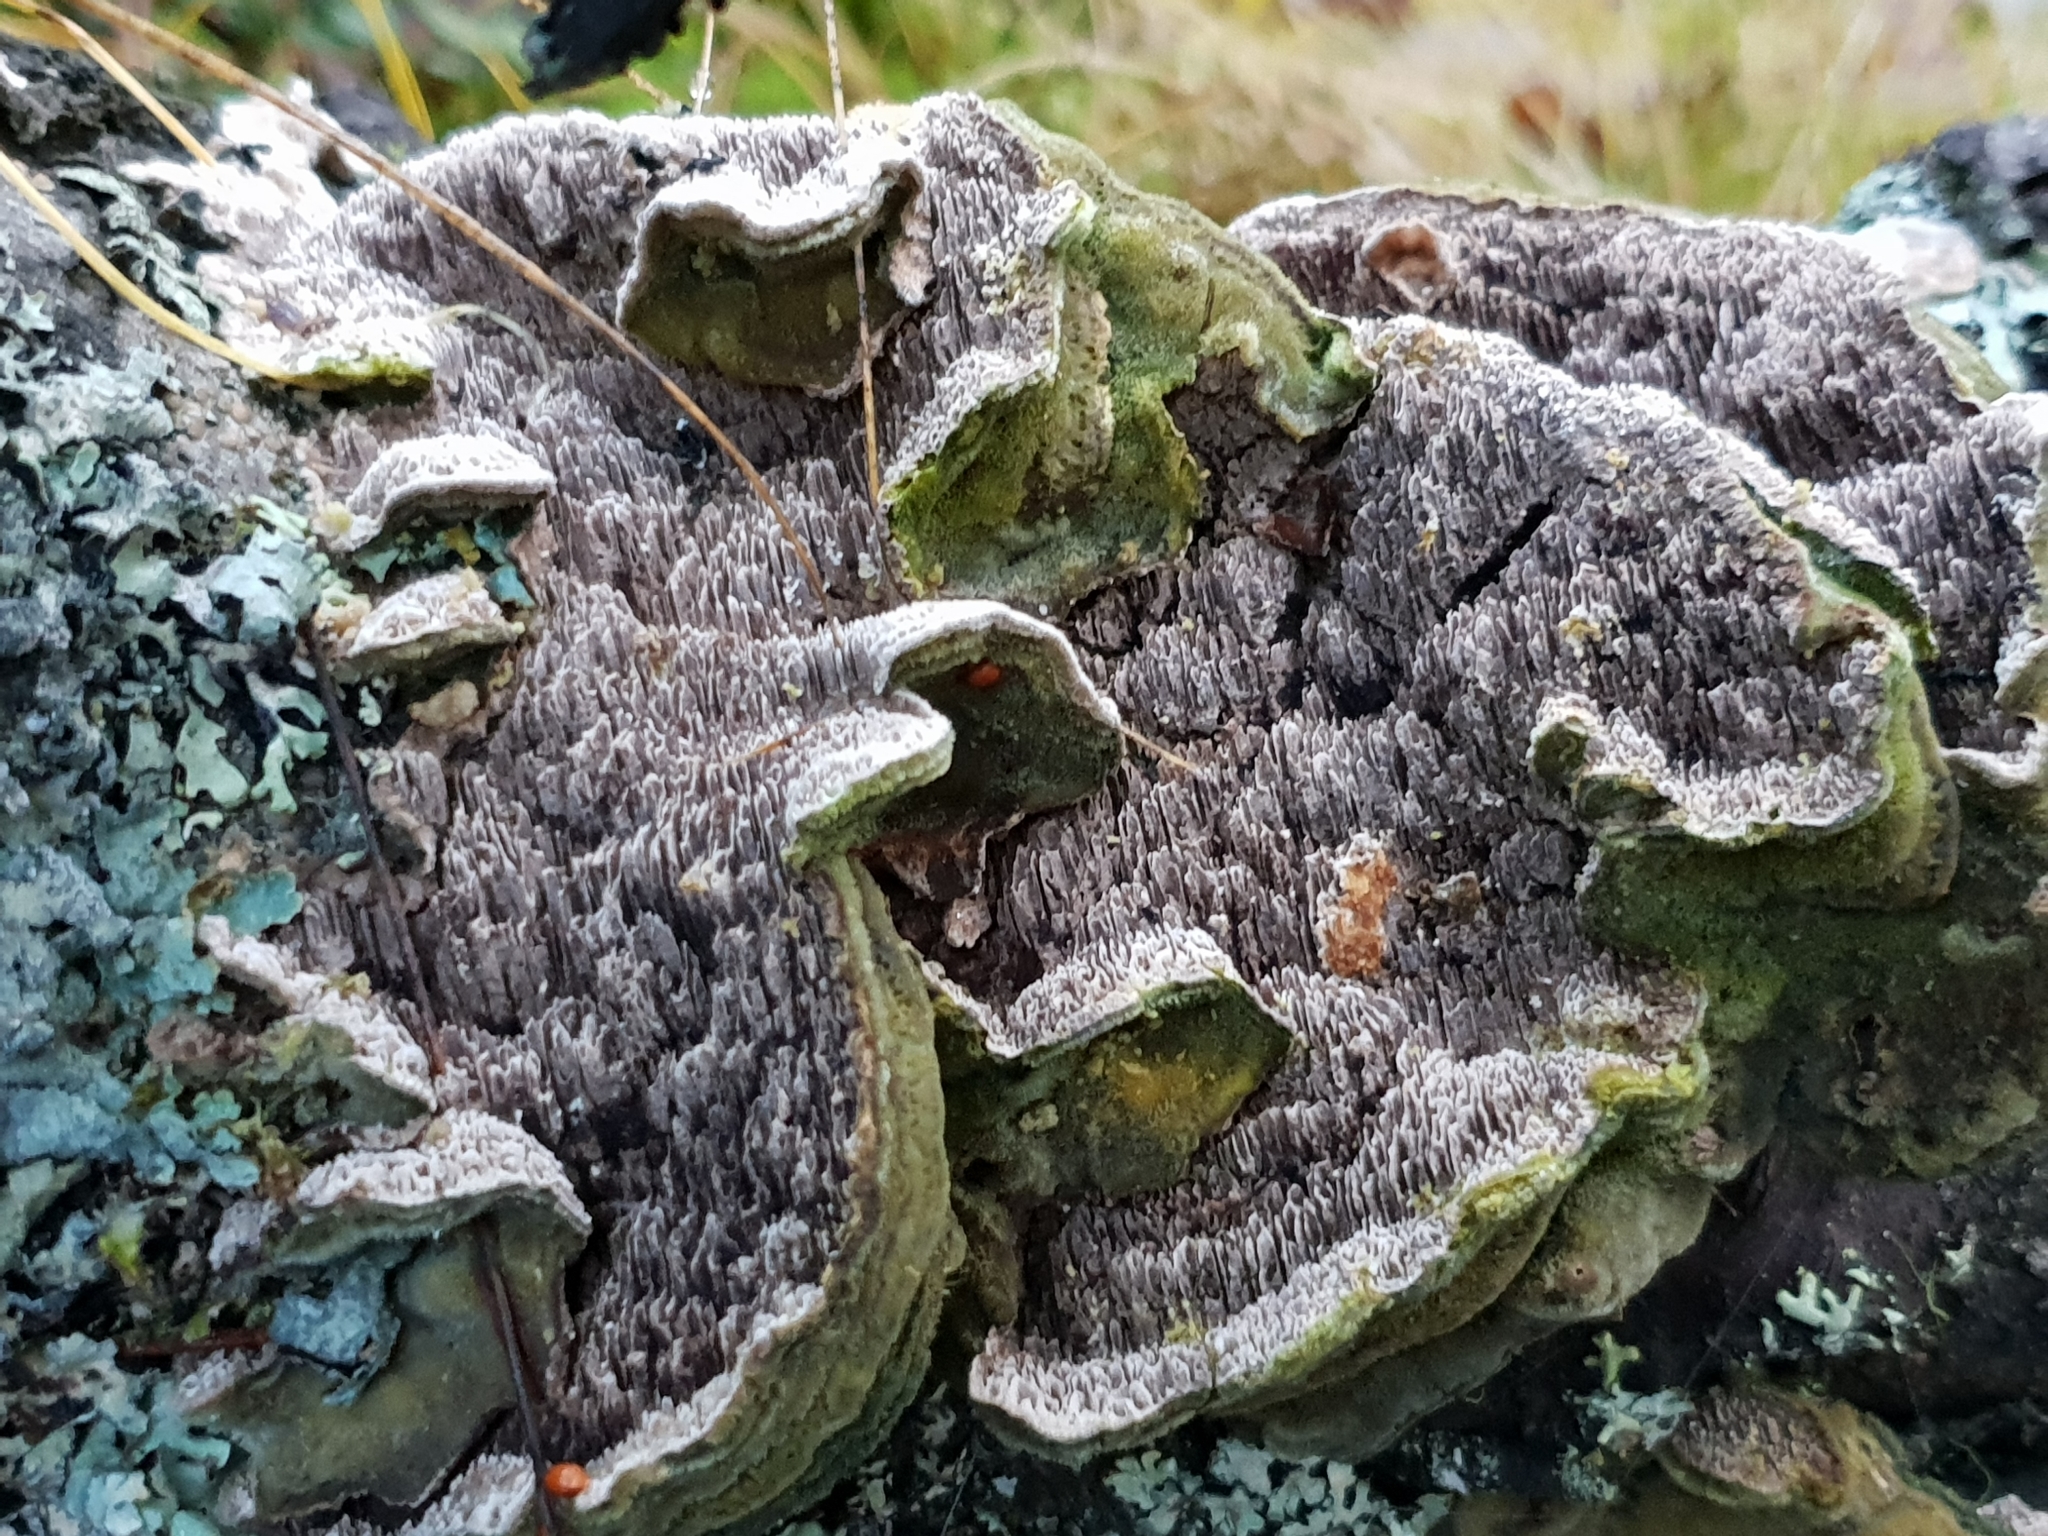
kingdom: Fungi
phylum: Basidiomycota
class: Agaricomycetes
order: Polyporales
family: Cerrenaceae
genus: Cerrena
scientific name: Cerrena unicolor
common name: Mossy maze polypore
